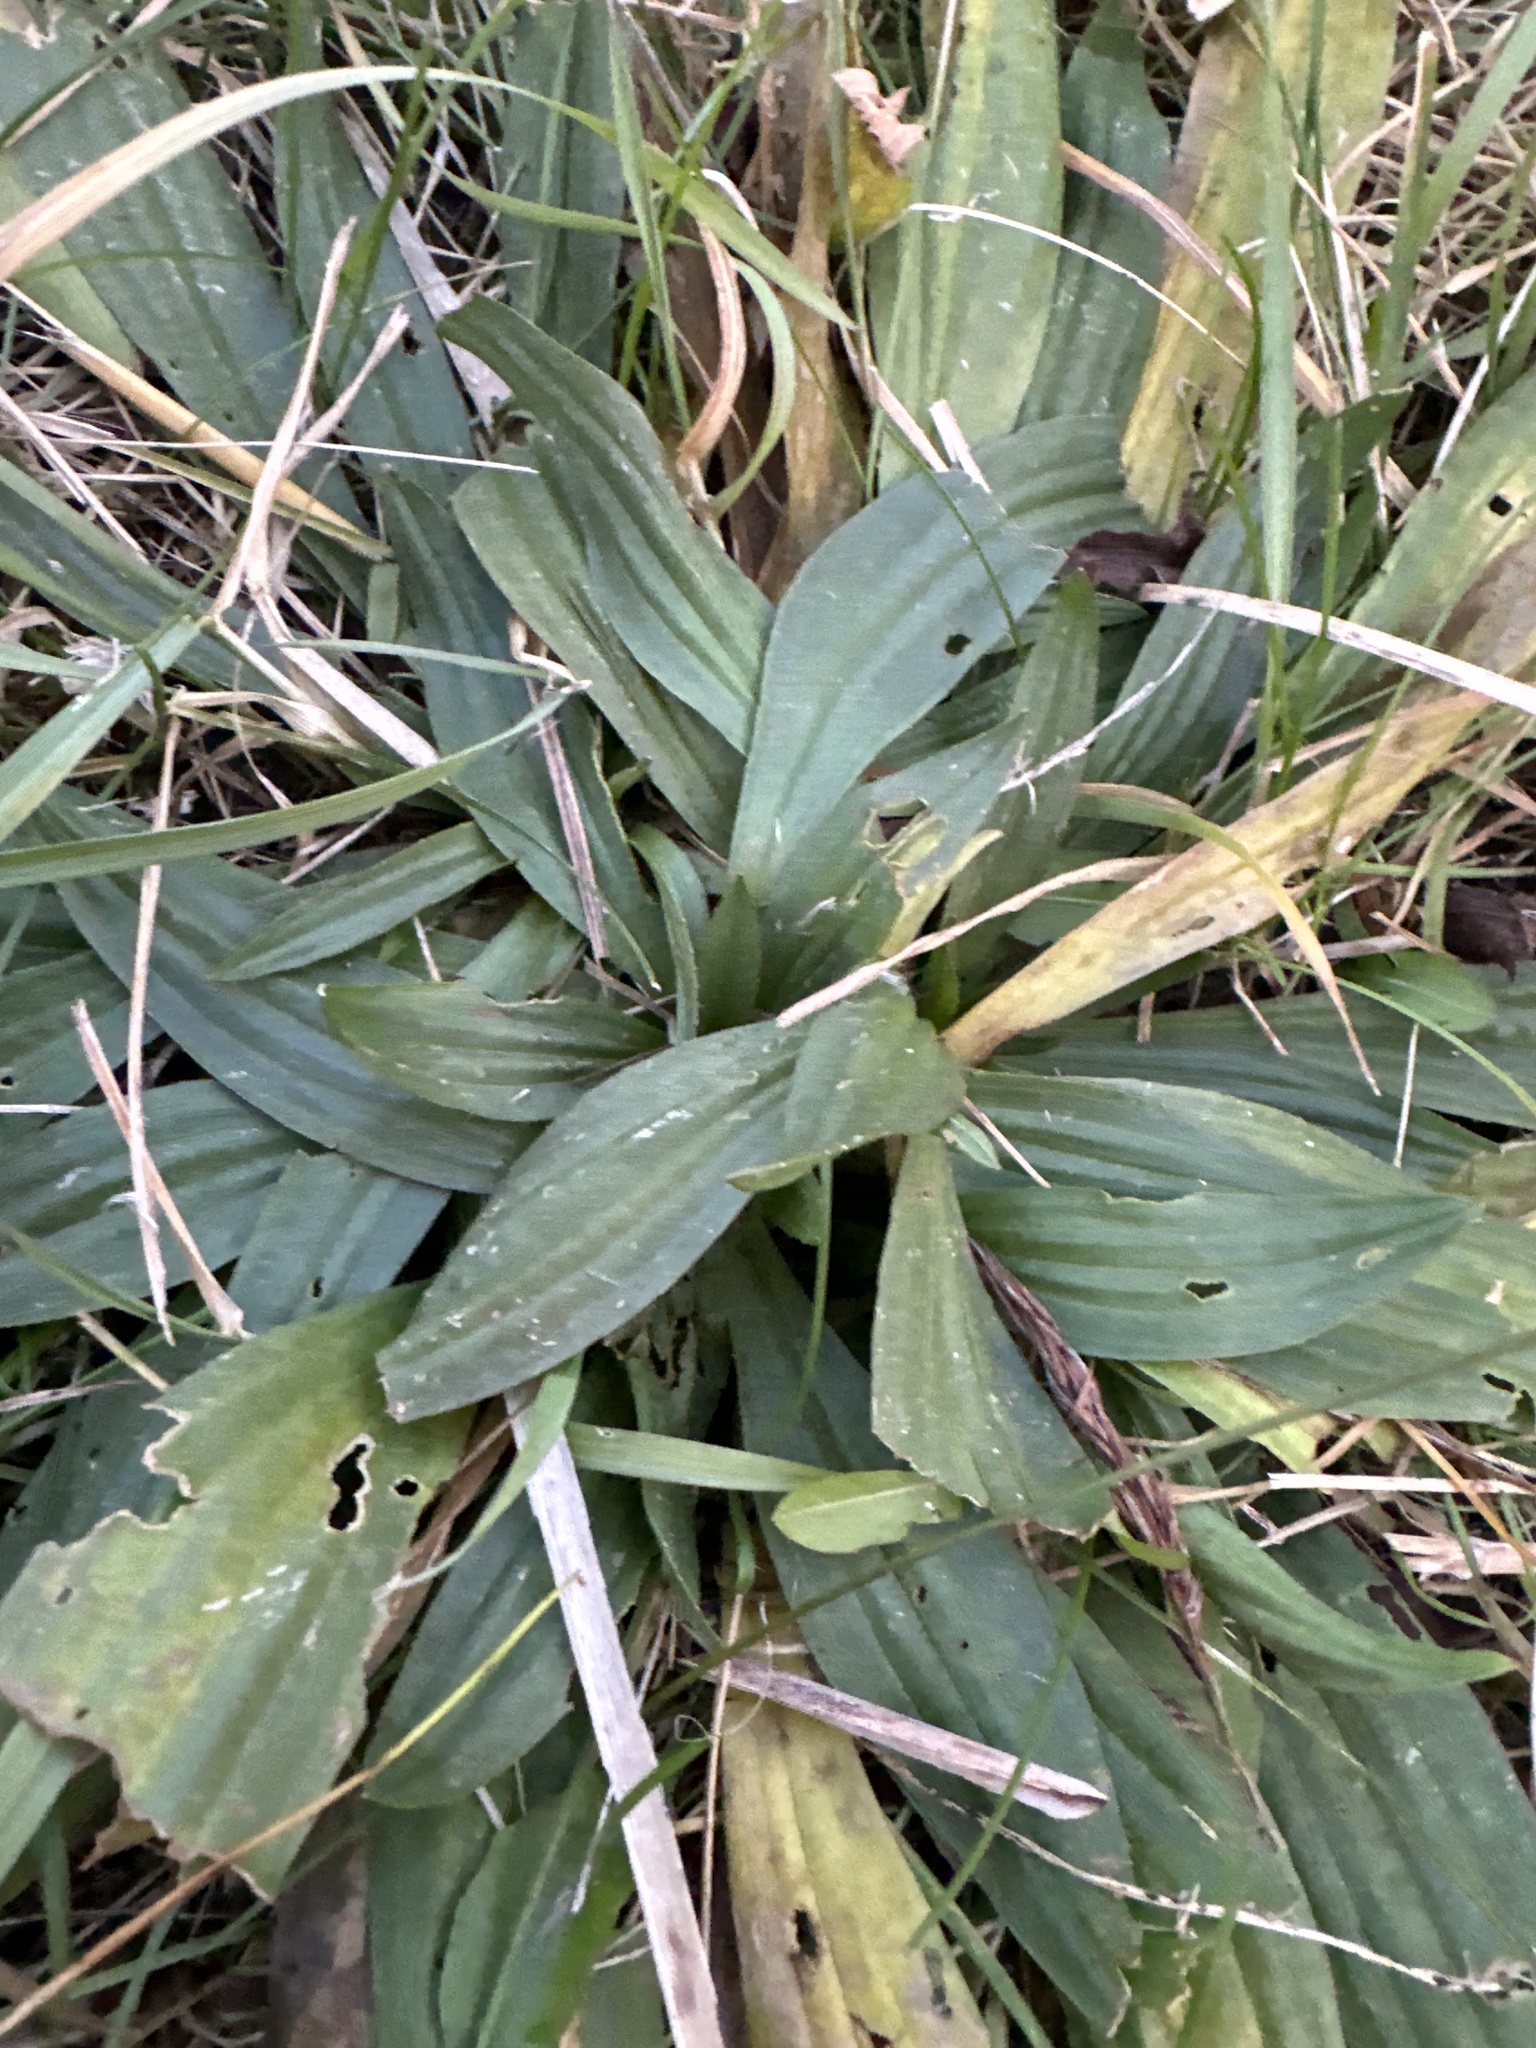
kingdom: Plantae
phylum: Tracheophyta
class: Magnoliopsida
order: Lamiales
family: Plantaginaceae
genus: Plantago
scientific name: Plantago lanceolata
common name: Ribwort plantain
